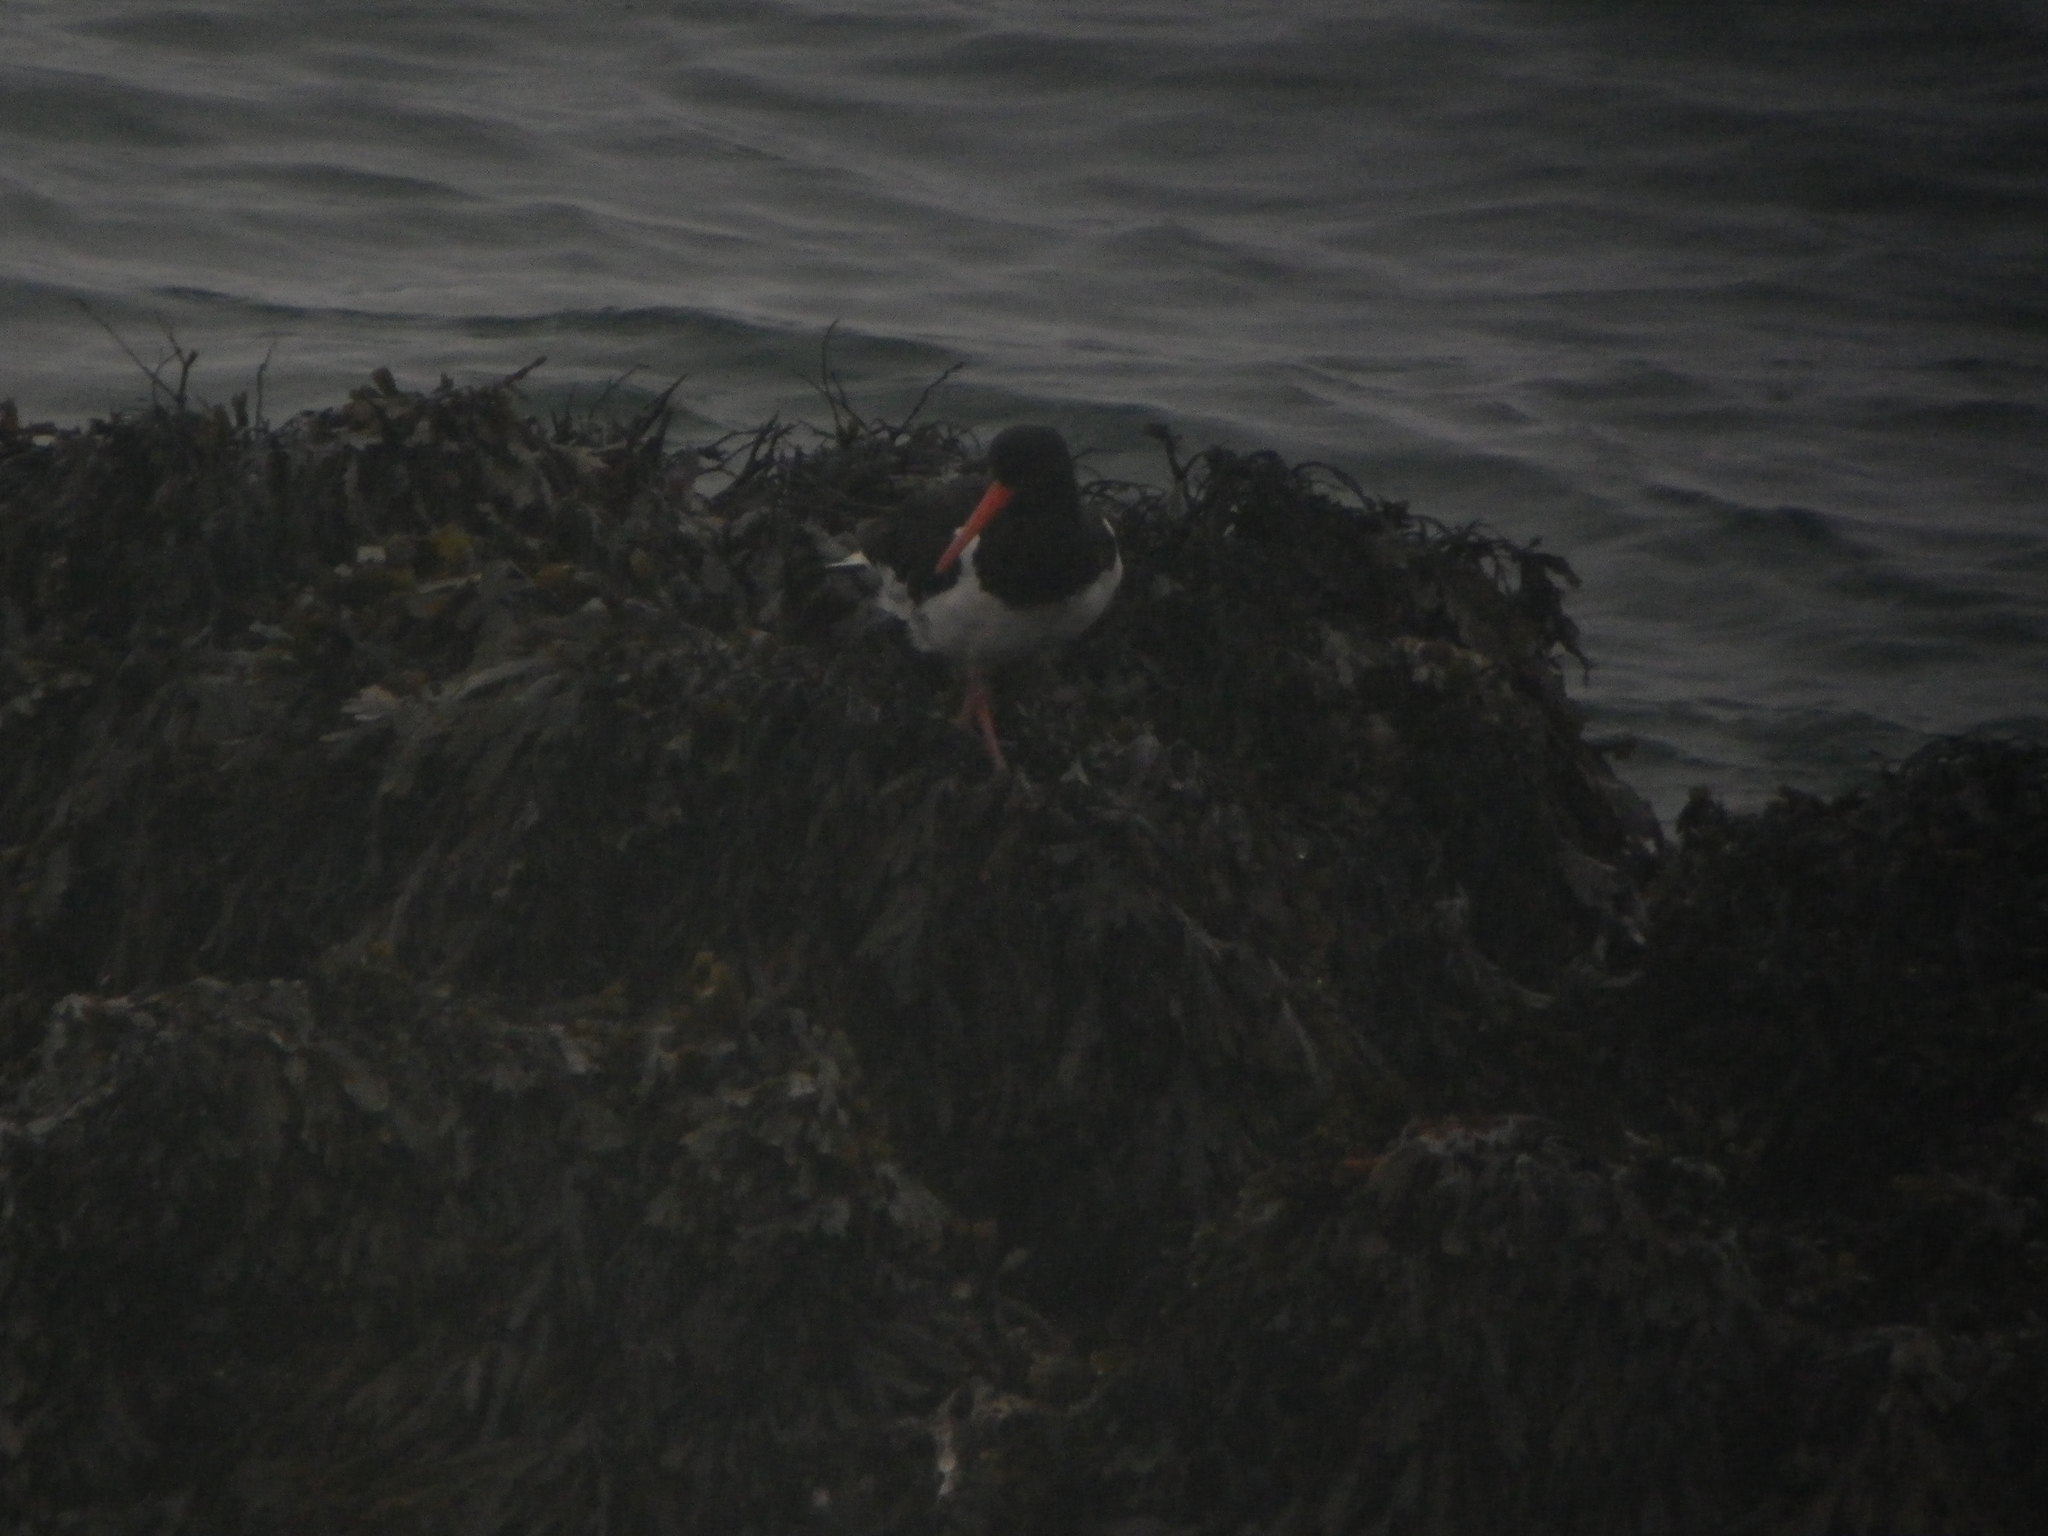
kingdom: Animalia
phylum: Chordata
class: Aves
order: Charadriiformes
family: Haematopodidae
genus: Haematopus
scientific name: Haematopus ostralegus
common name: Eurasian oystercatcher
